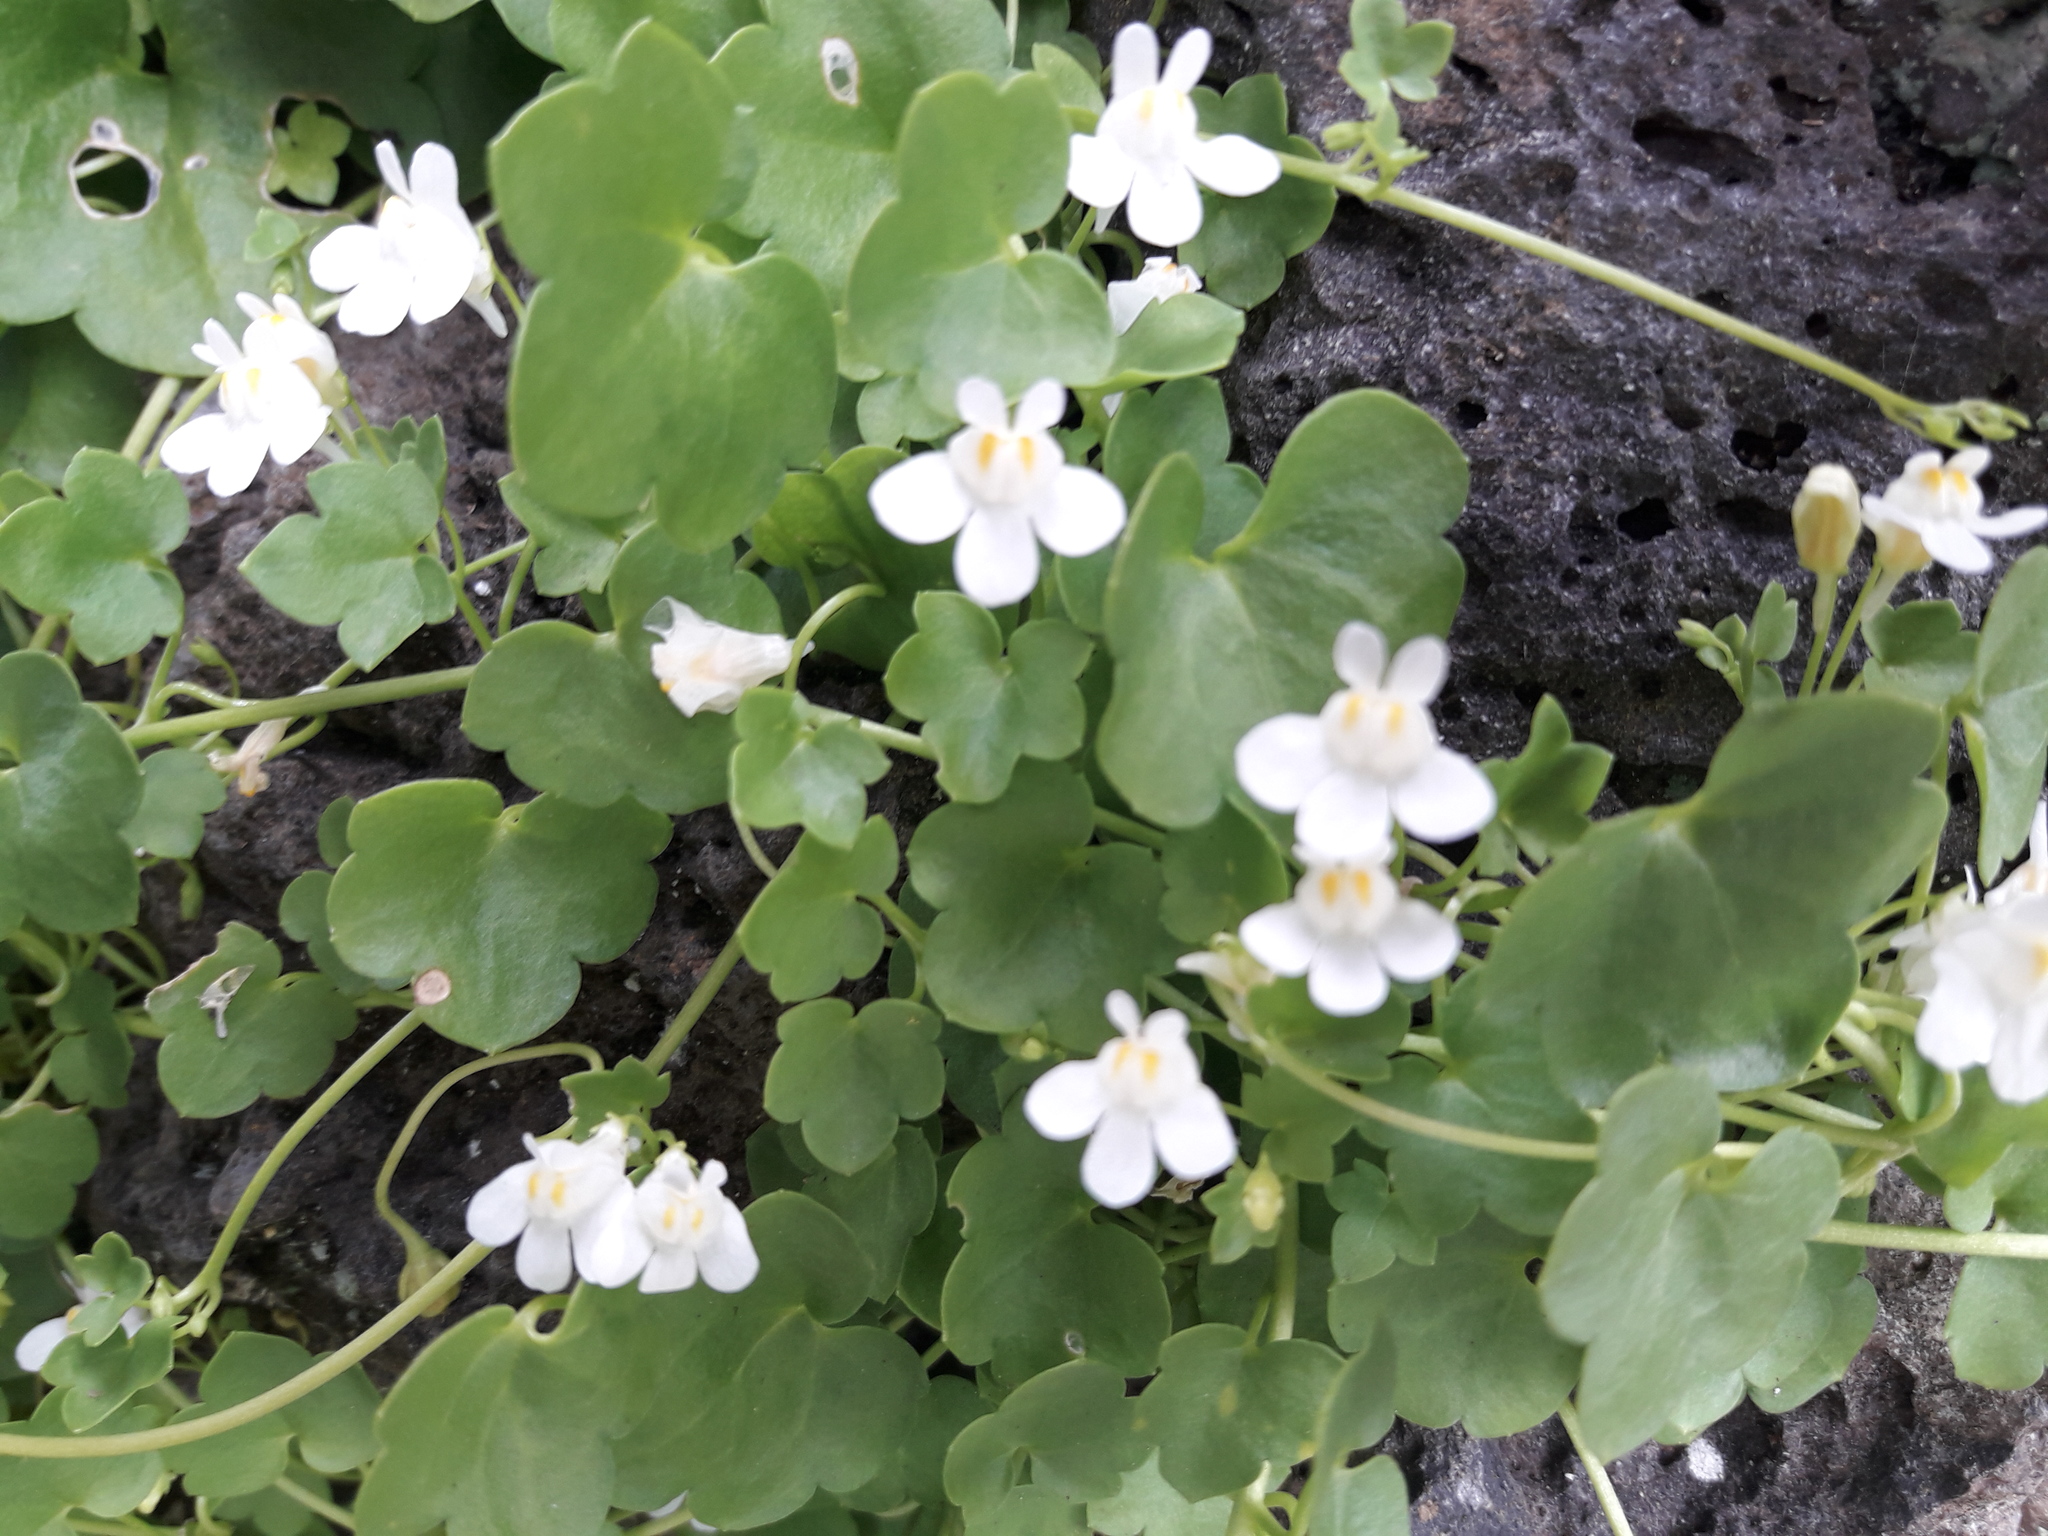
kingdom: Plantae
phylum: Tracheophyta
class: Magnoliopsida
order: Lamiales
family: Plantaginaceae
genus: Cymbalaria
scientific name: Cymbalaria muralis
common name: Ivy-leaved toadflax
